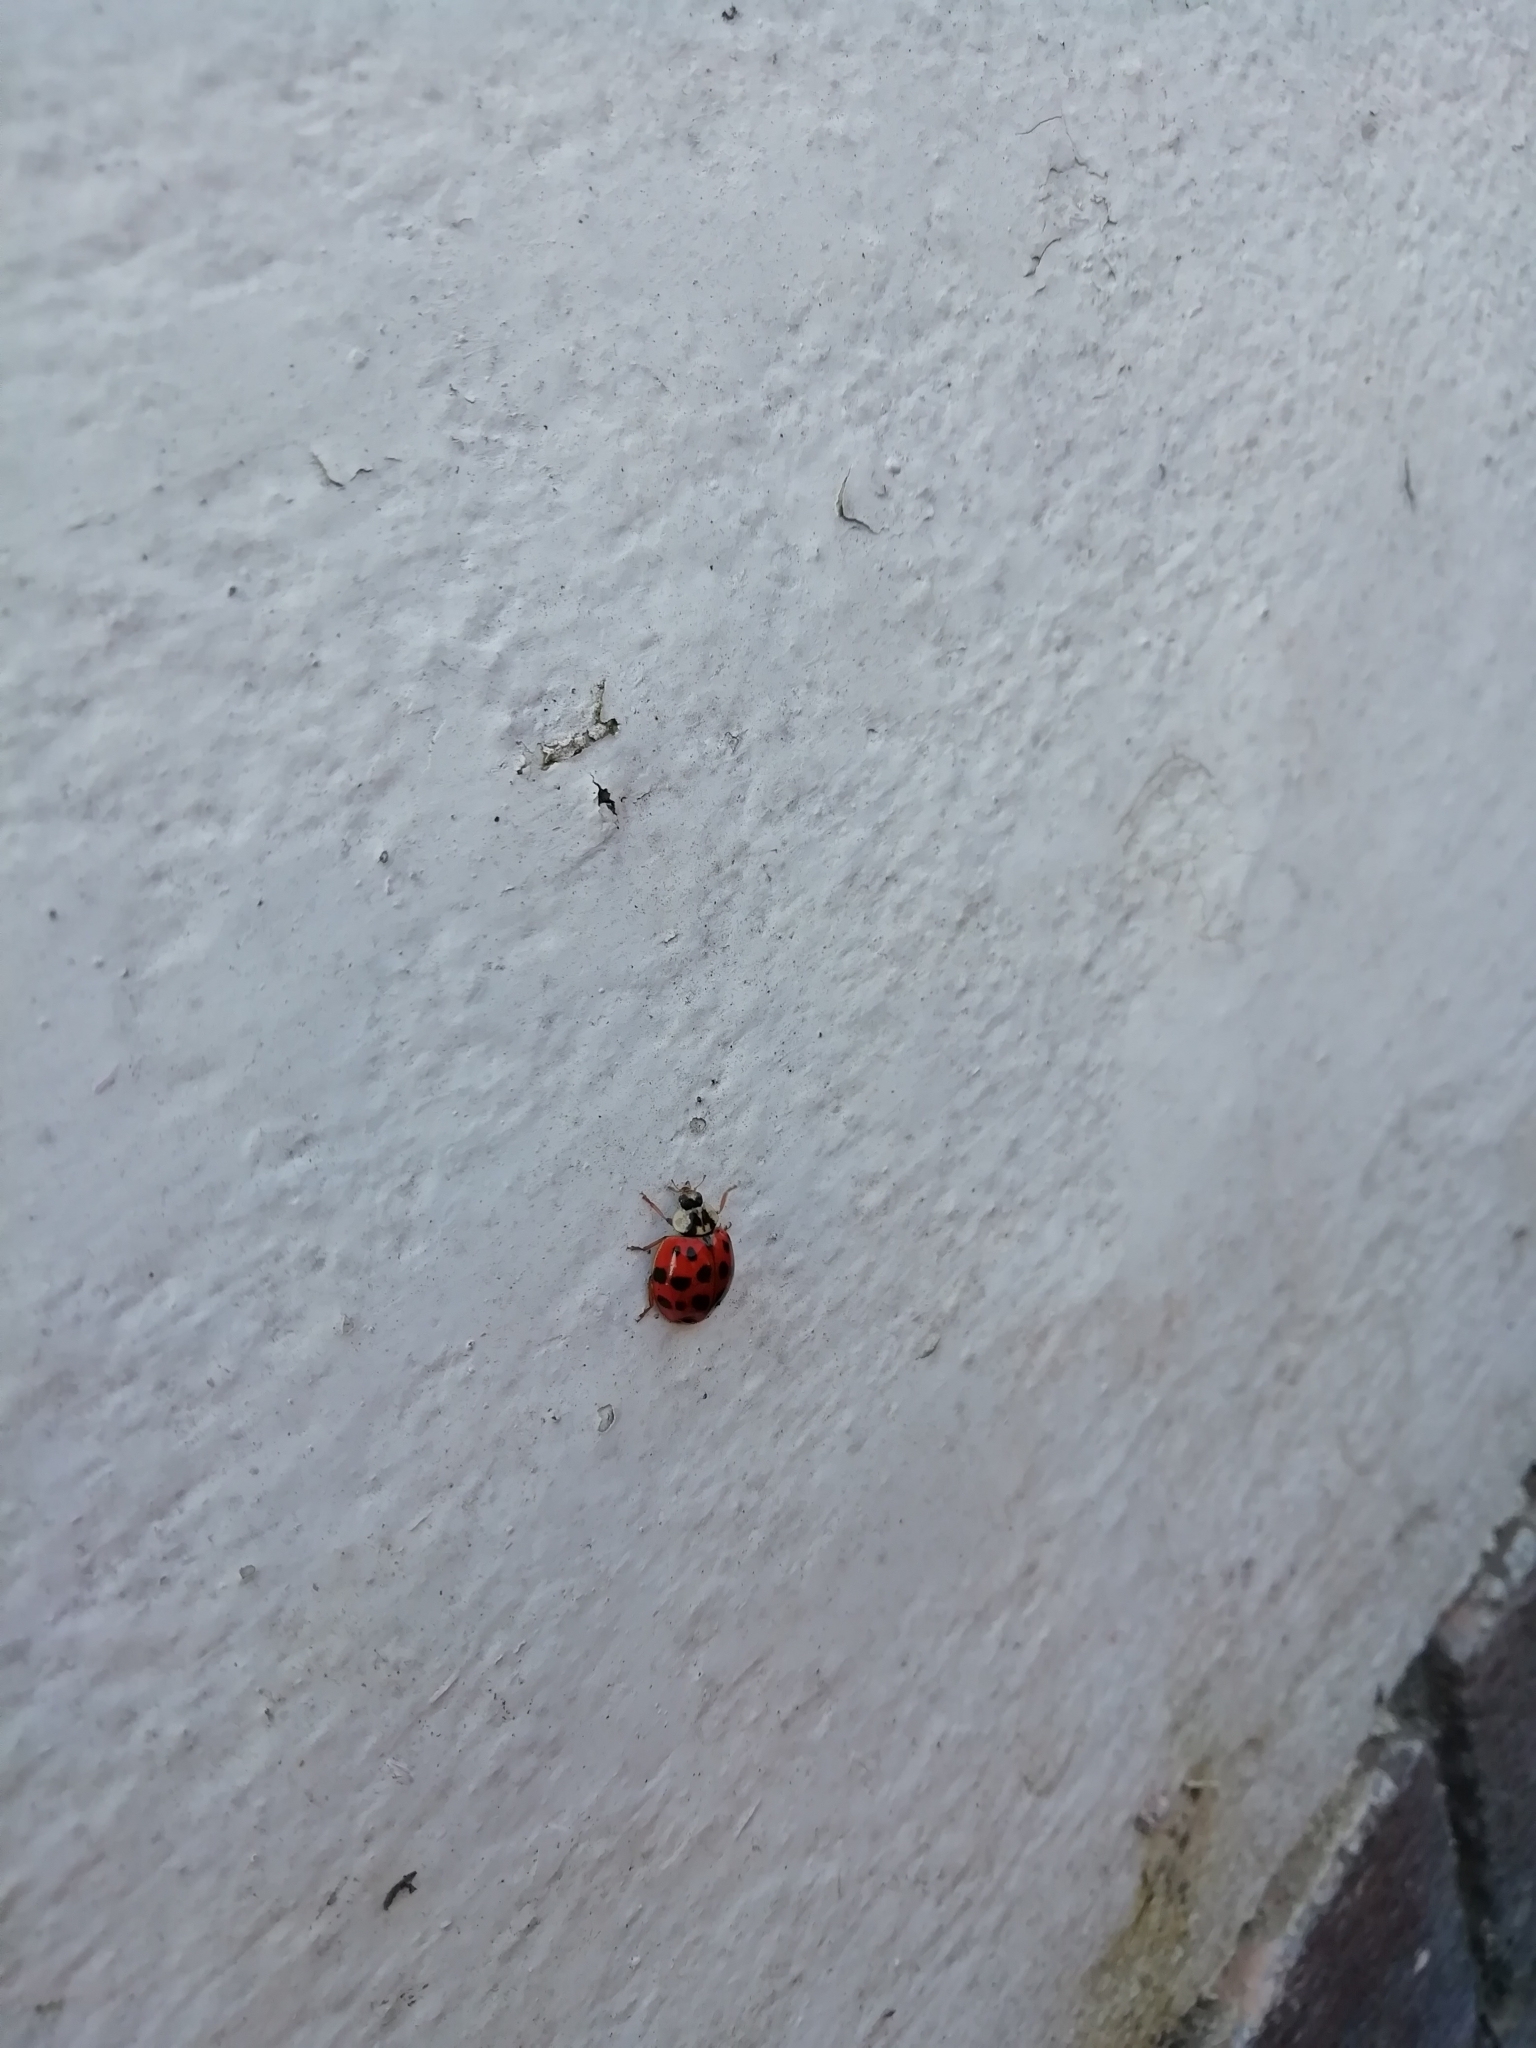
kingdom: Animalia
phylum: Arthropoda
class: Insecta
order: Coleoptera
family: Coccinellidae
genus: Harmonia
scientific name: Harmonia axyridis
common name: Harlequin ladybird
